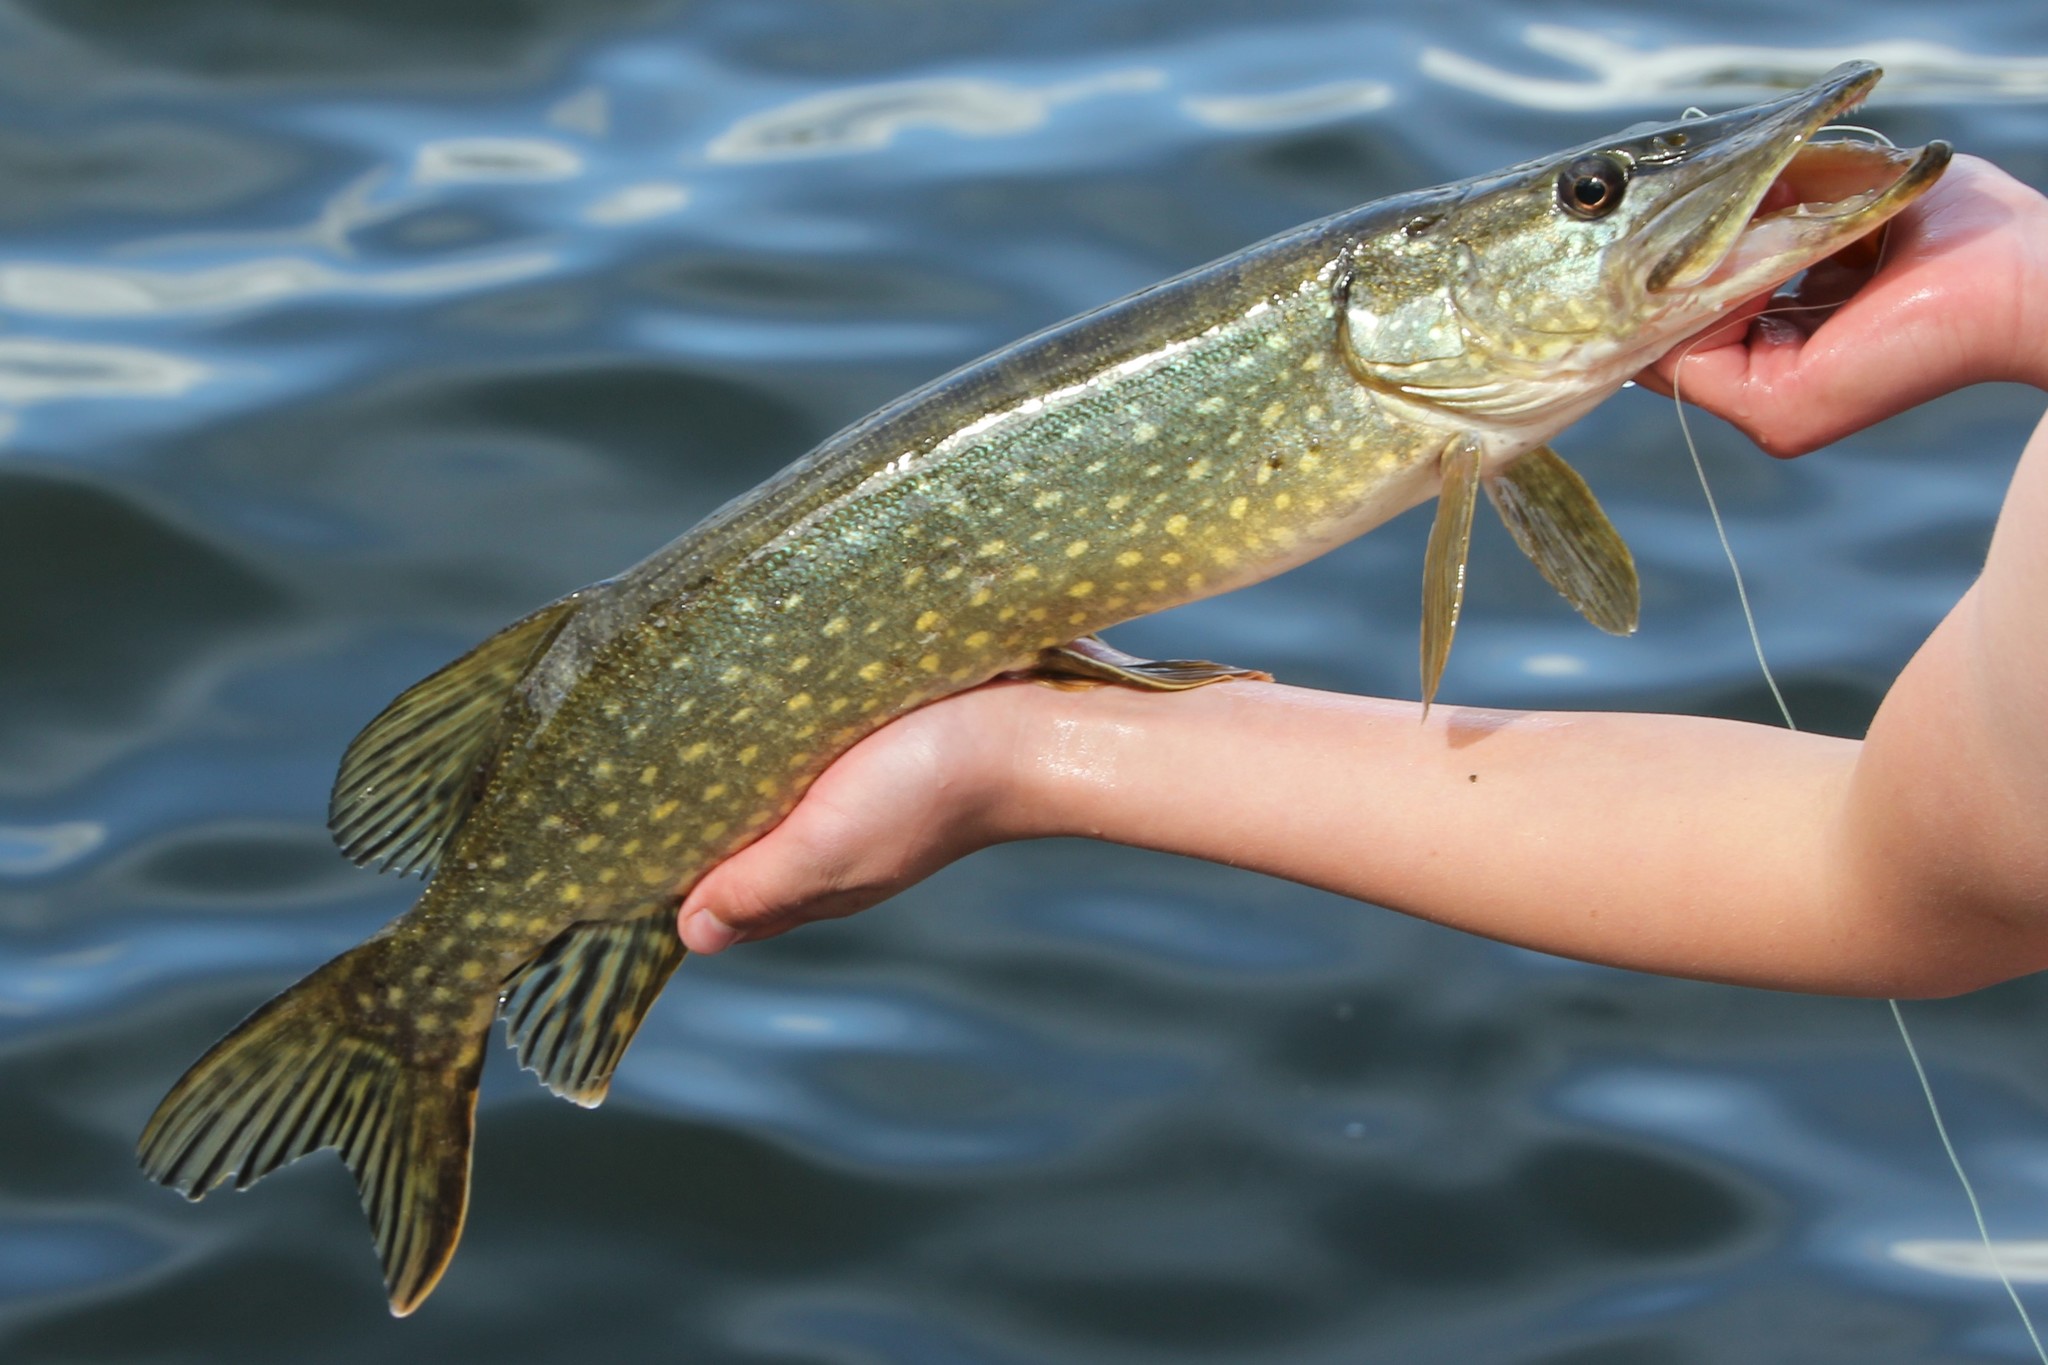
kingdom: Animalia
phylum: Chordata
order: Esociformes
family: Esocidae
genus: Esox
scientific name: Esox lucius
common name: Northern pike
